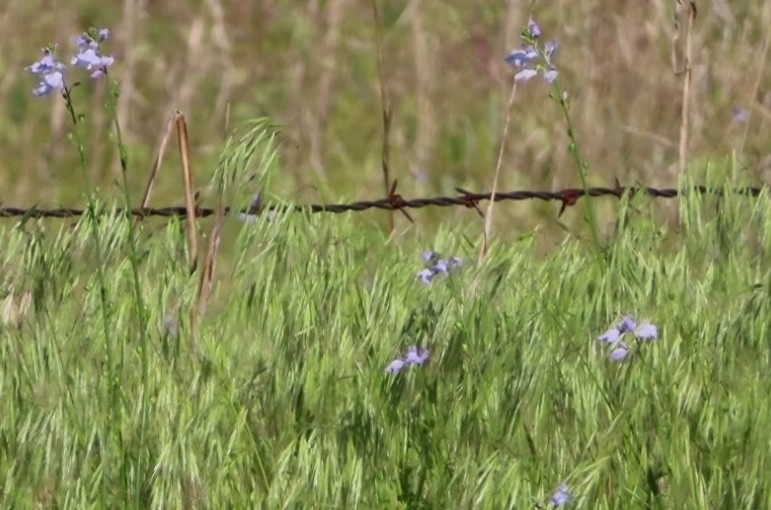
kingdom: Plantae
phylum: Tracheophyta
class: Magnoliopsida
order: Lamiales
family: Plantaginaceae
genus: Nuttallanthus
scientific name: Nuttallanthus texanus
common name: Texas toadflax
